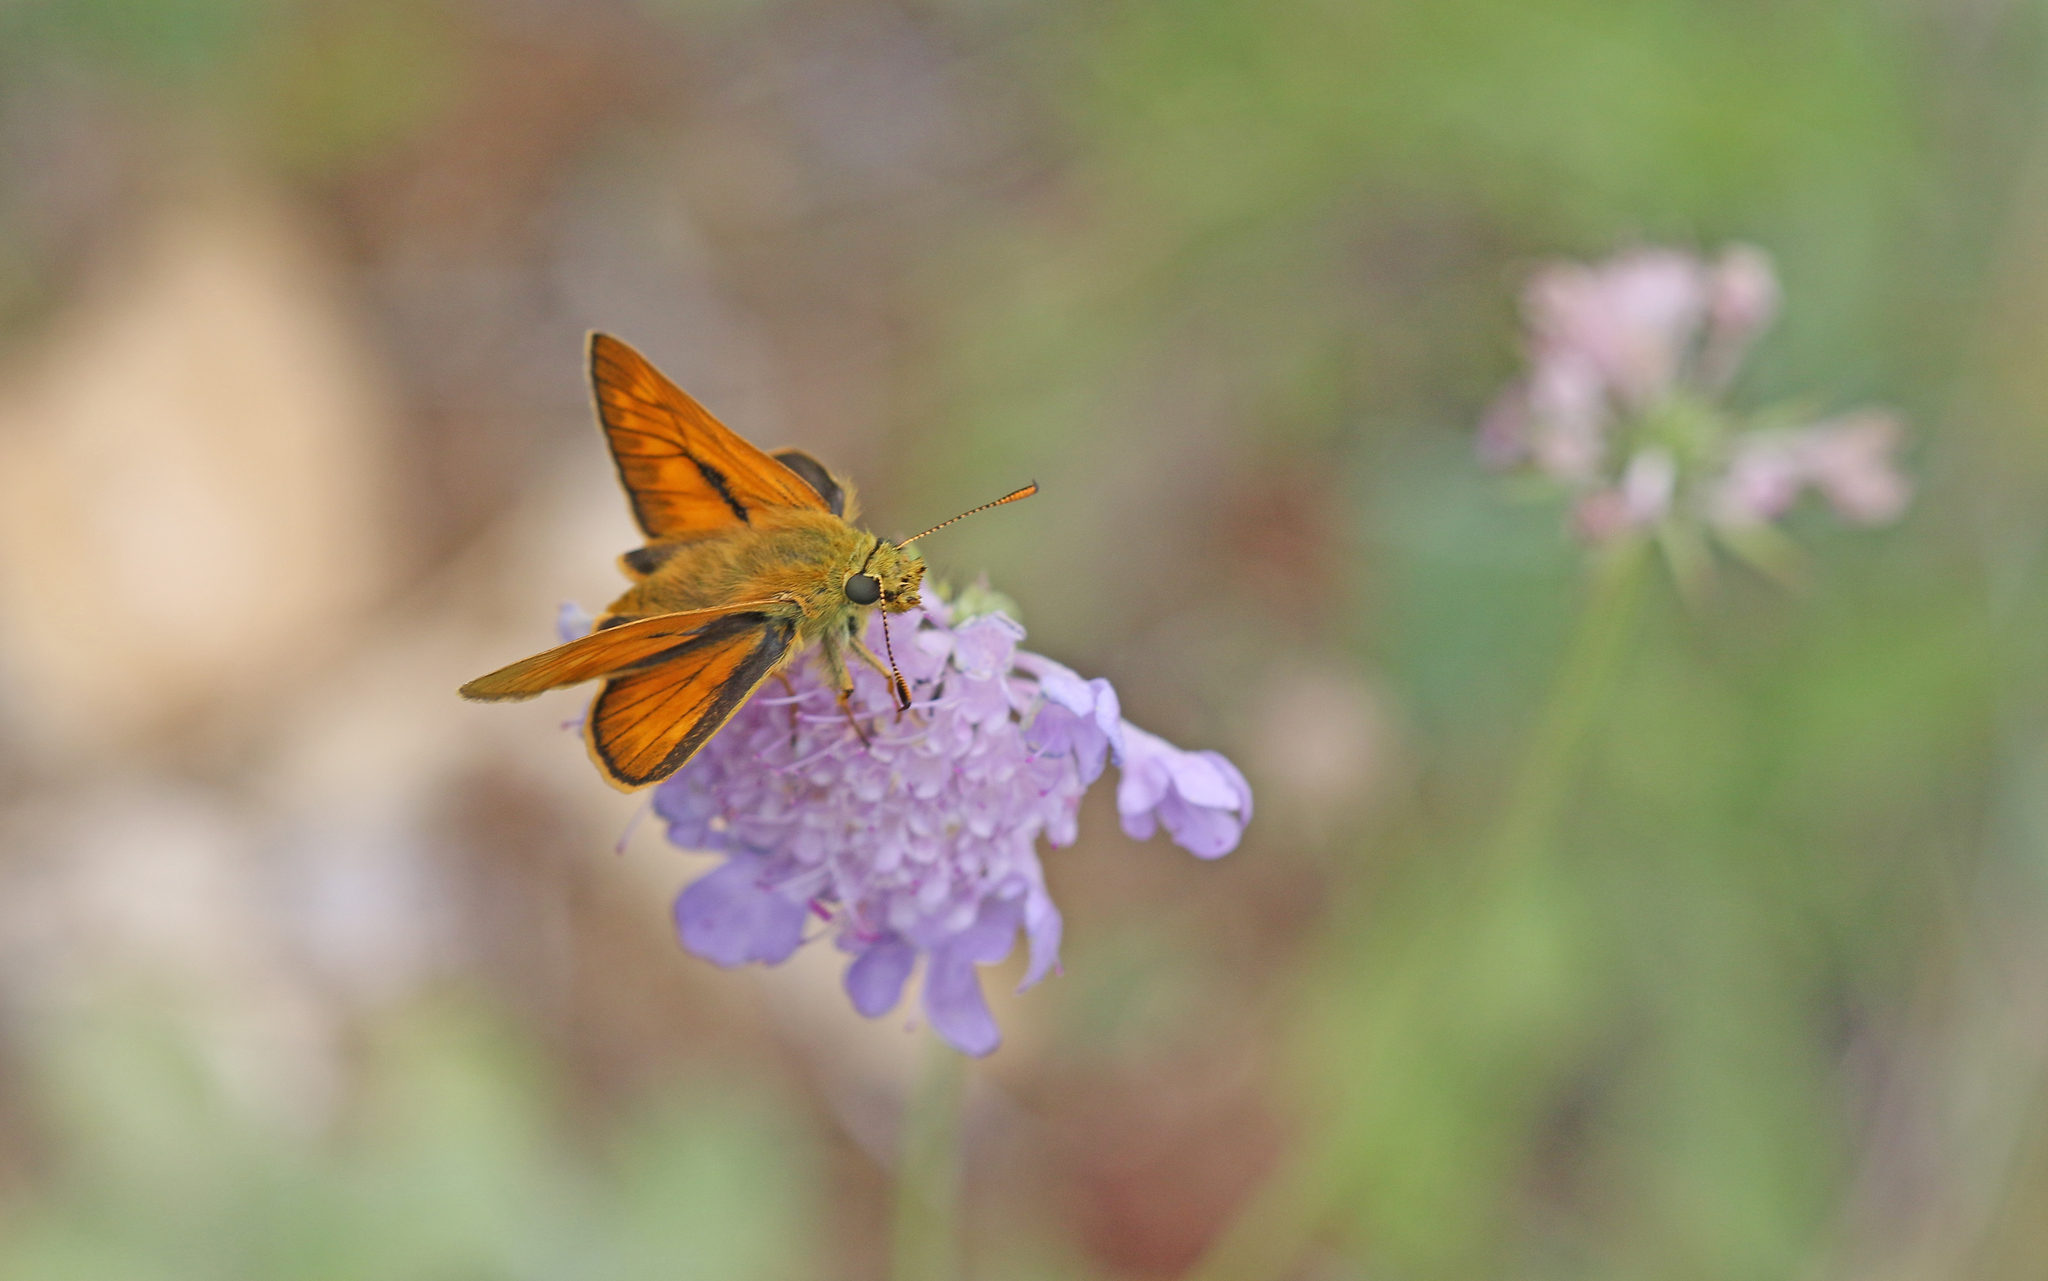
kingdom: Animalia
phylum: Arthropoda
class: Insecta
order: Lepidoptera
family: Hesperiidae
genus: Ochlodes
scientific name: Ochlodes venata
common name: Large skipper
